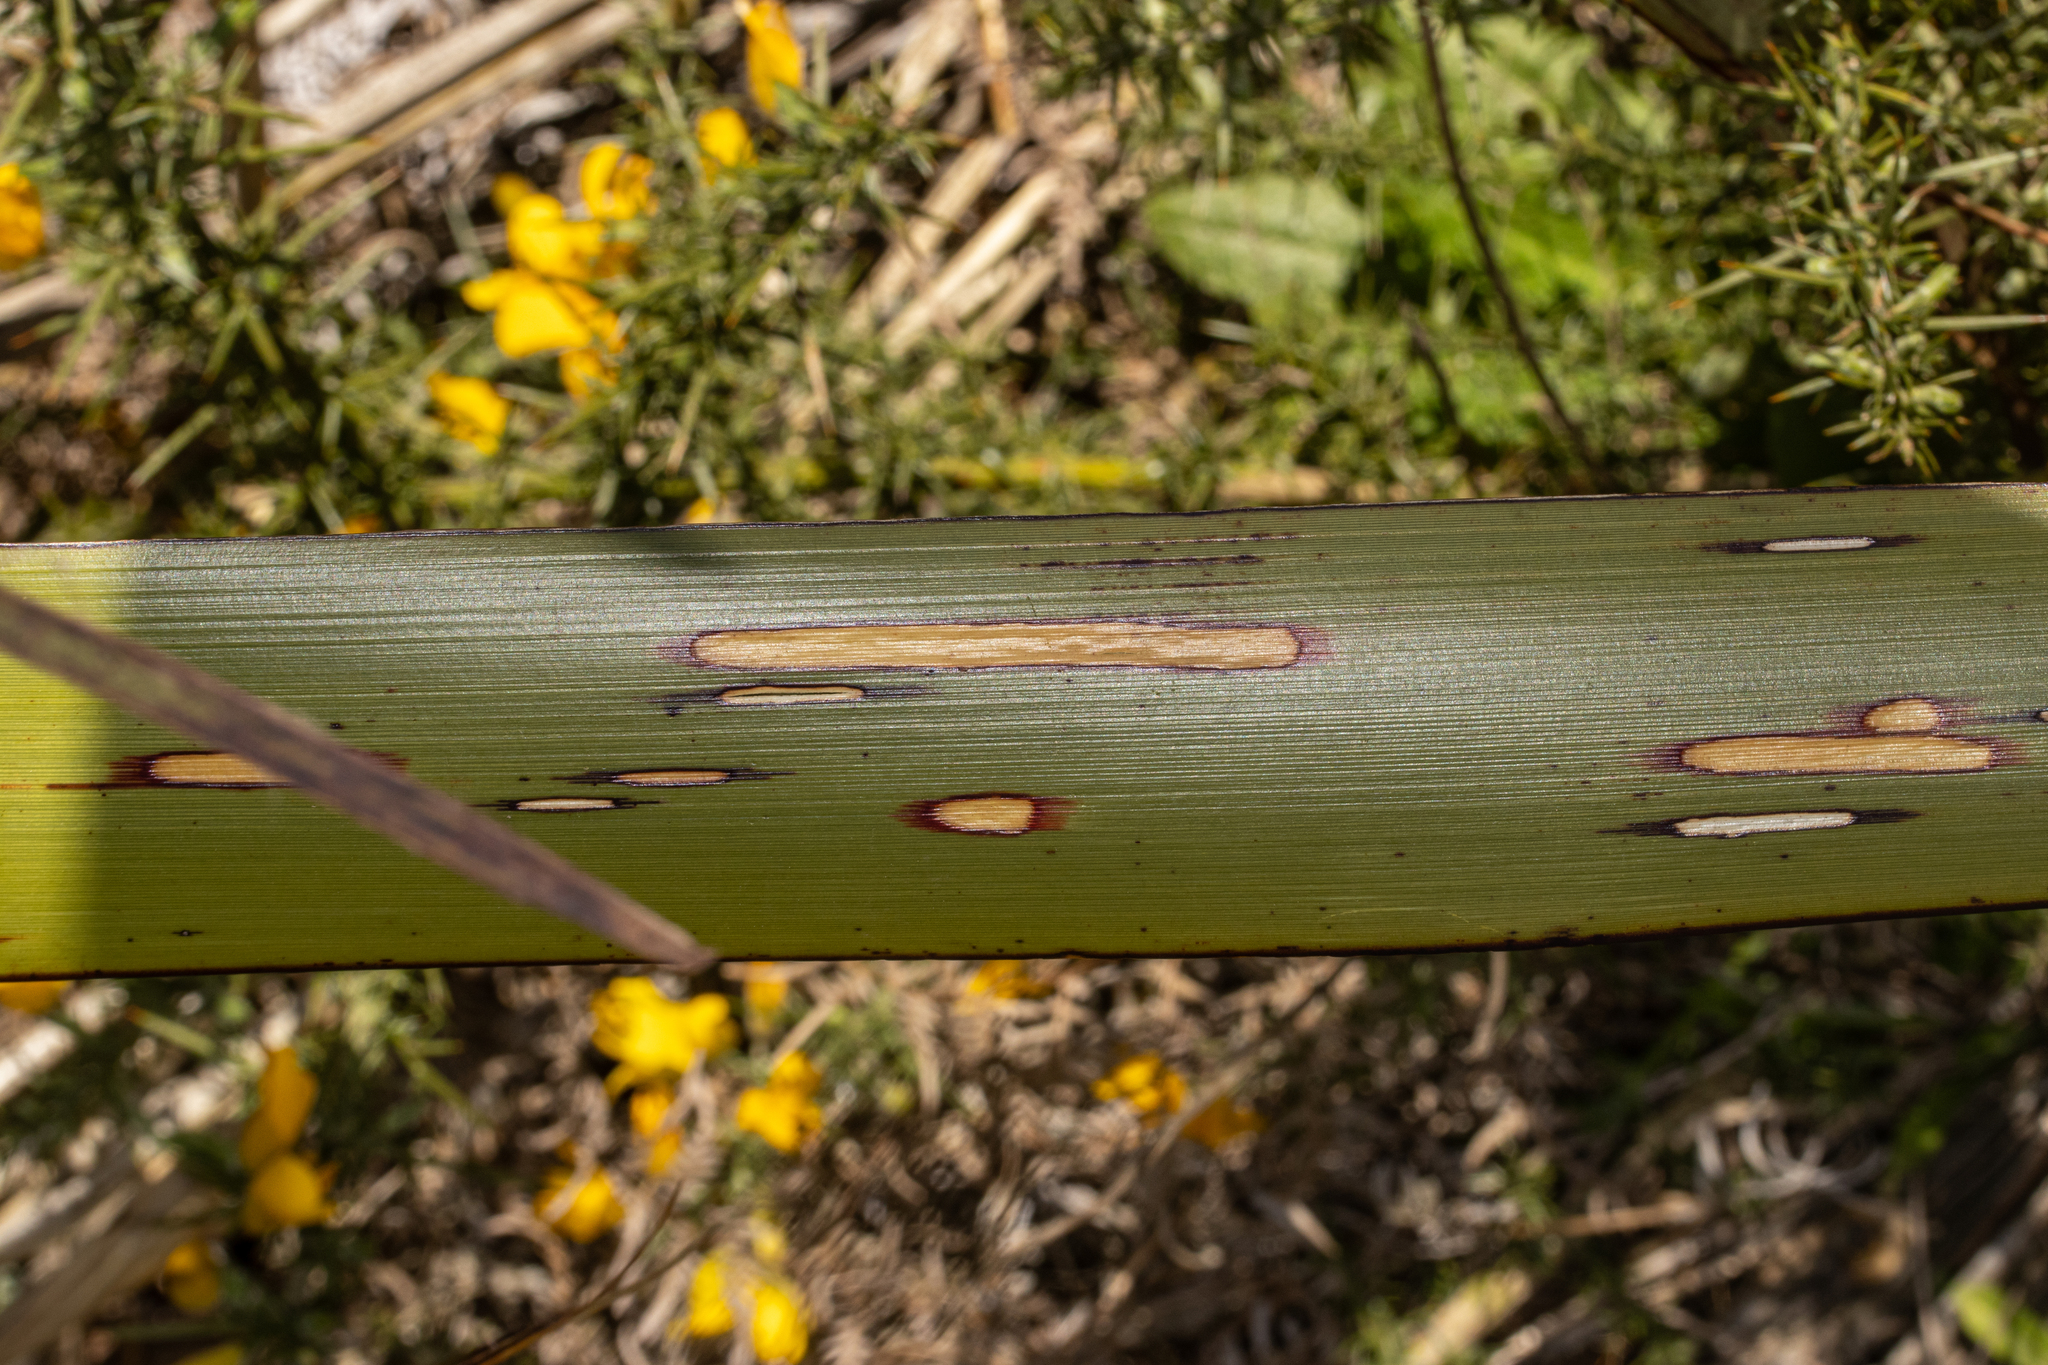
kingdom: Animalia
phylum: Arthropoda
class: Insecta
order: Lepidoptera
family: Geometridae
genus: Orthoclydon
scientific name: Orthoclydon praefectata
